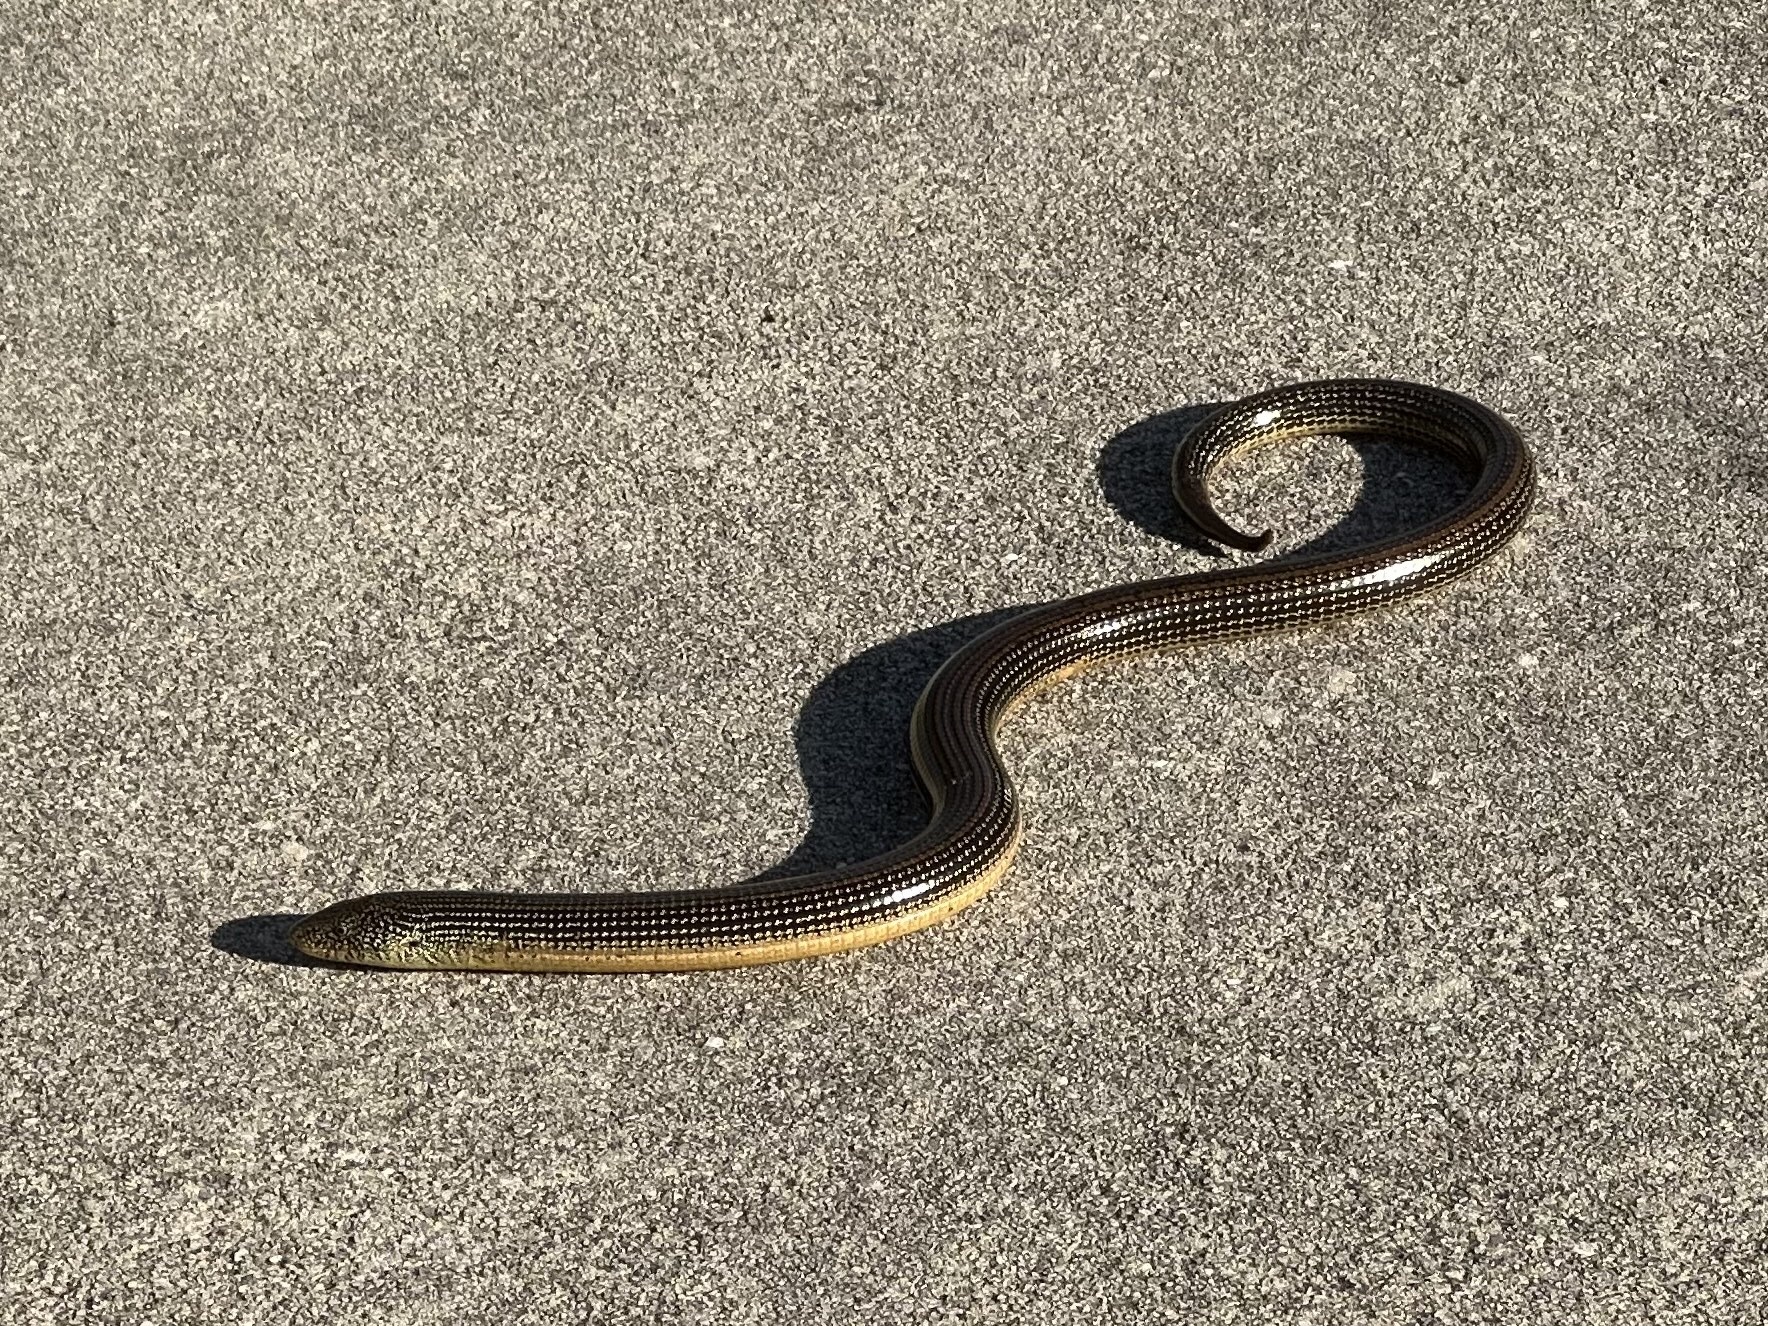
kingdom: Animalia
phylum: Chordata
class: Squamata
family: Anguidae
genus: Ophisaurus
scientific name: Ophisaurus ventralis
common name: Eastern glass lizard
